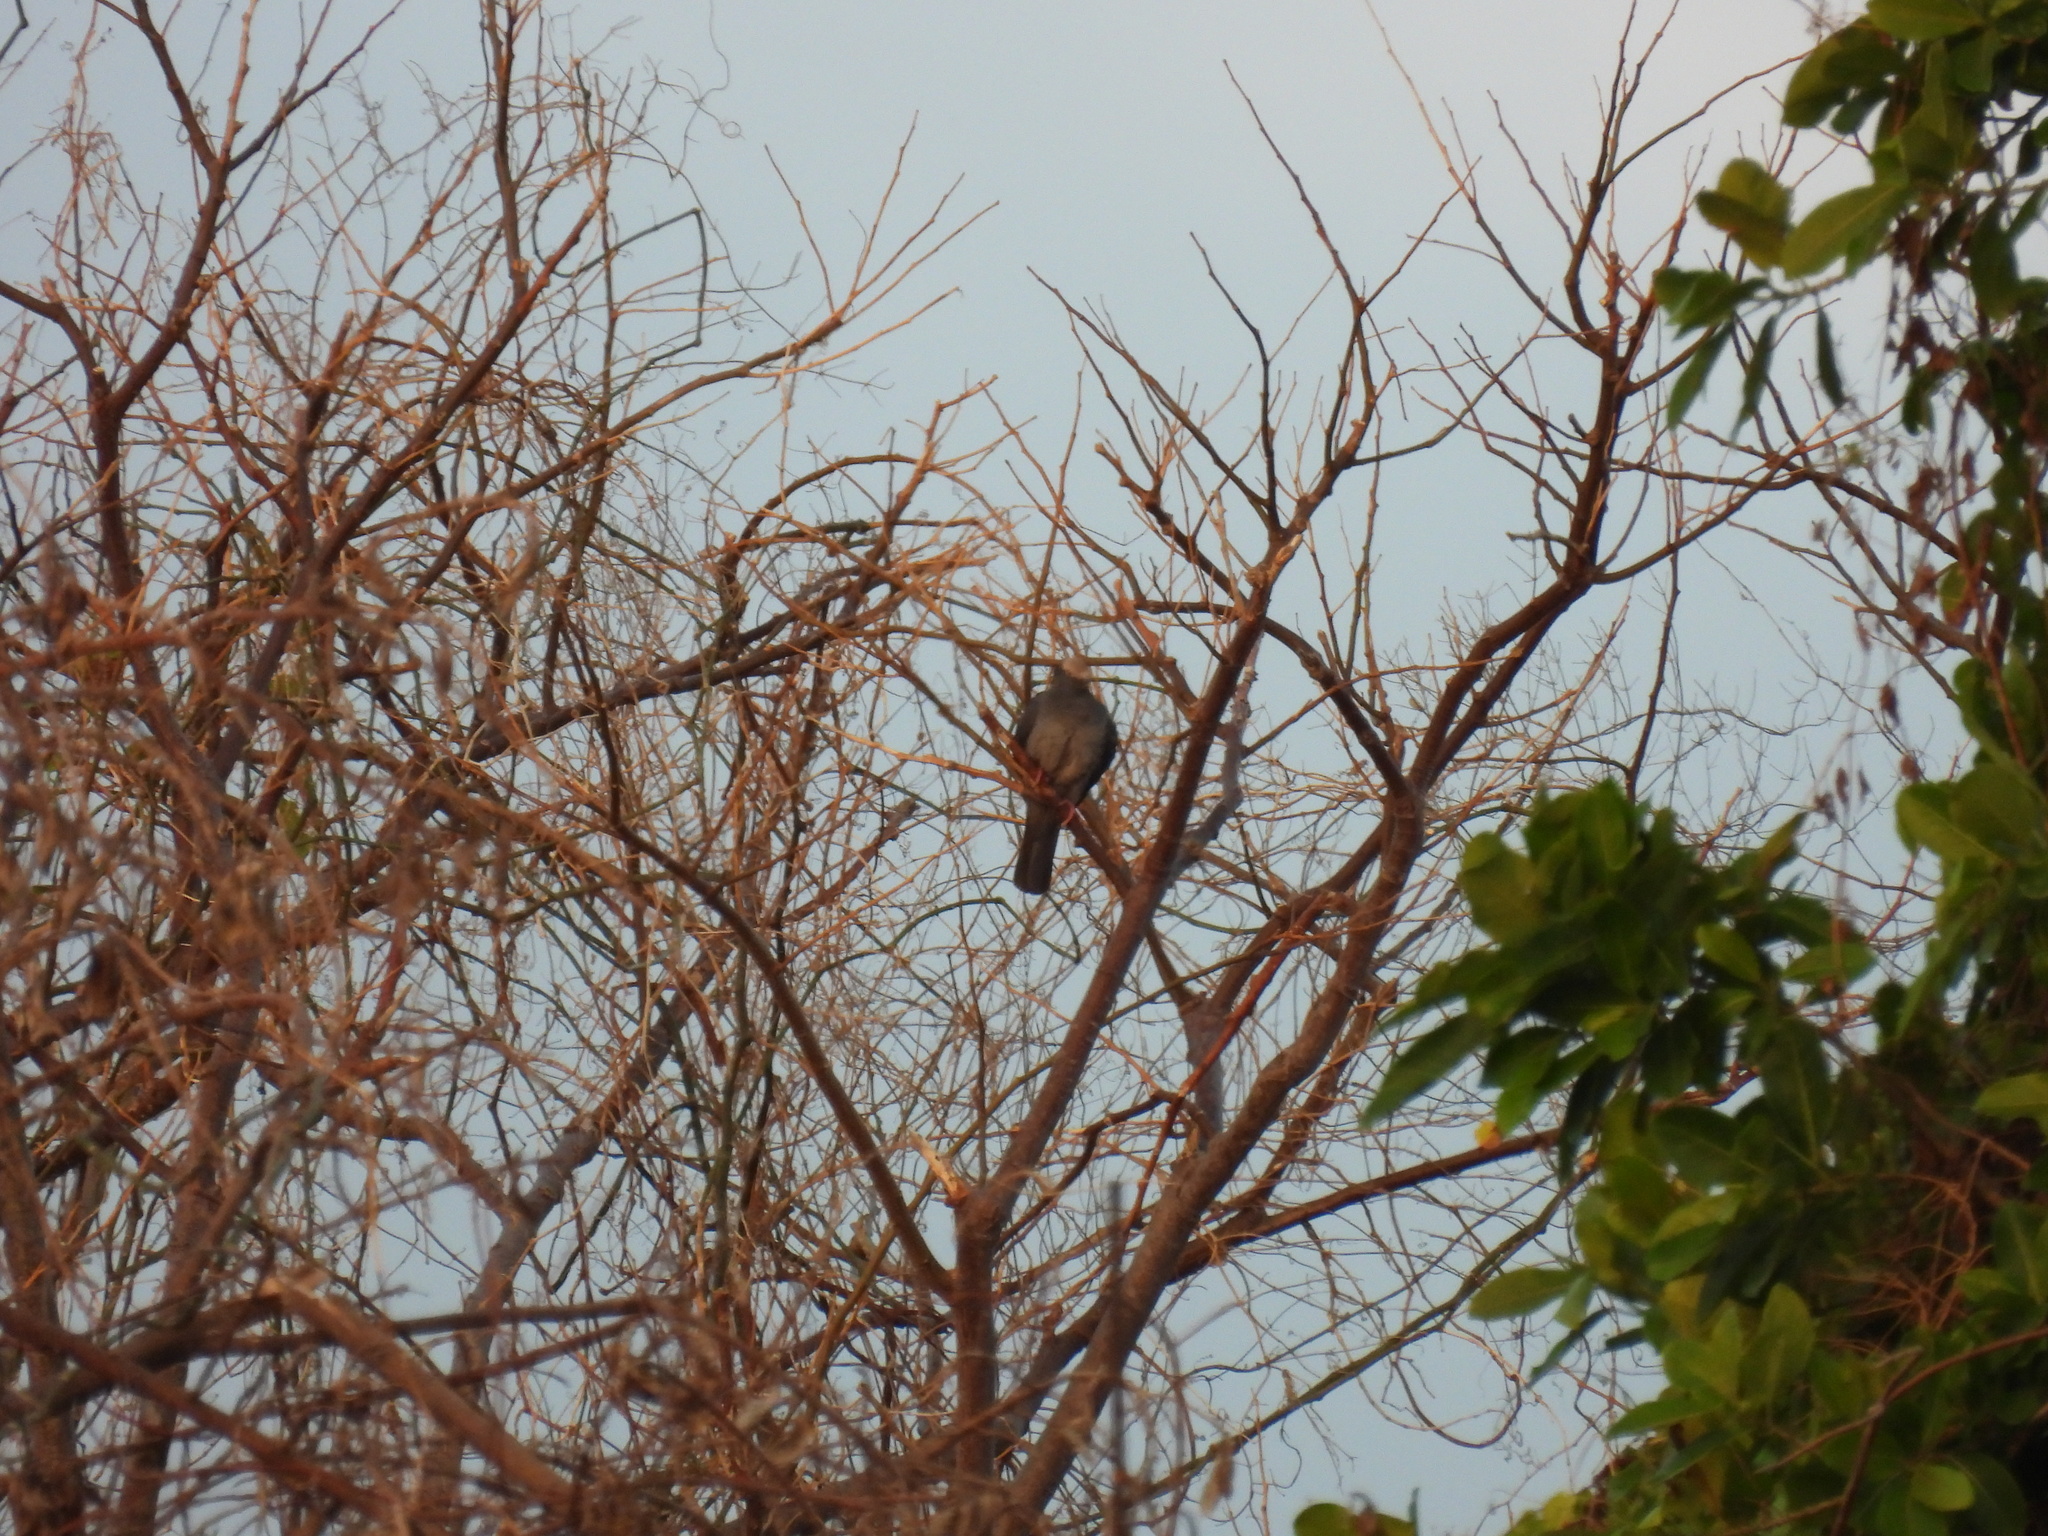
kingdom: Animalia
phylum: Chordata
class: Aves
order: Columbiformes
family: Columbidae
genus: Patagioenas
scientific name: Patagioenas leucocephala
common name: White-crowned pigeon
